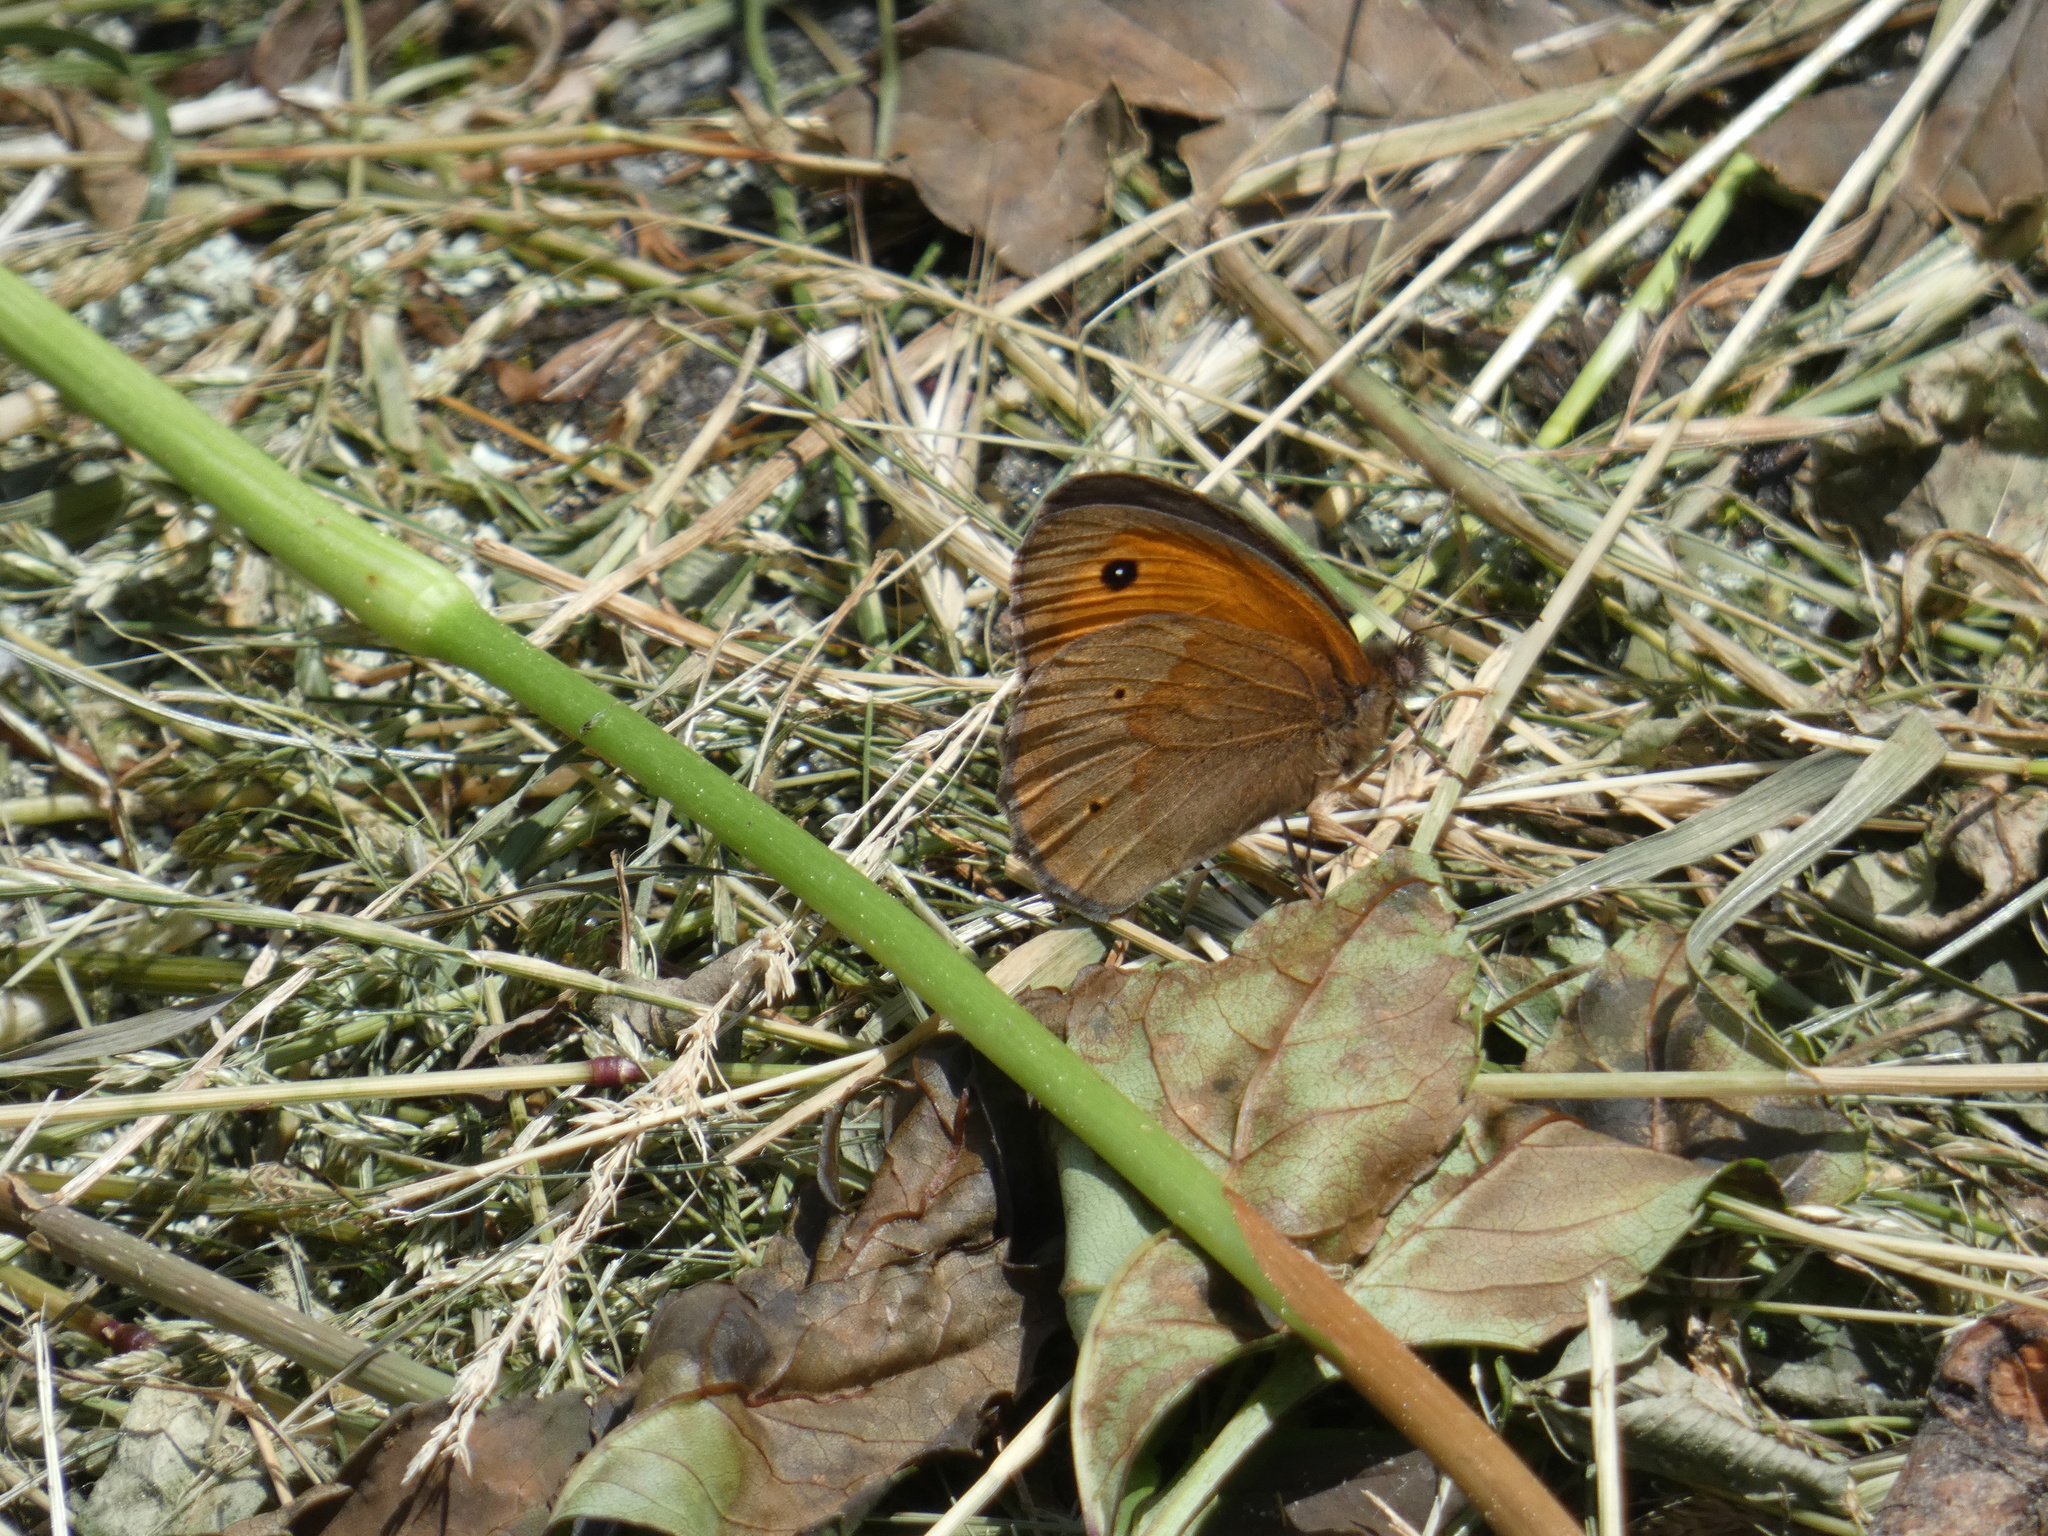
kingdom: Animalia
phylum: Arthropoda
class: Insecta
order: Lepidoptera
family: Nymphalidae
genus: Maniola
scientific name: Maniola jurtina
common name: Meadow brown
